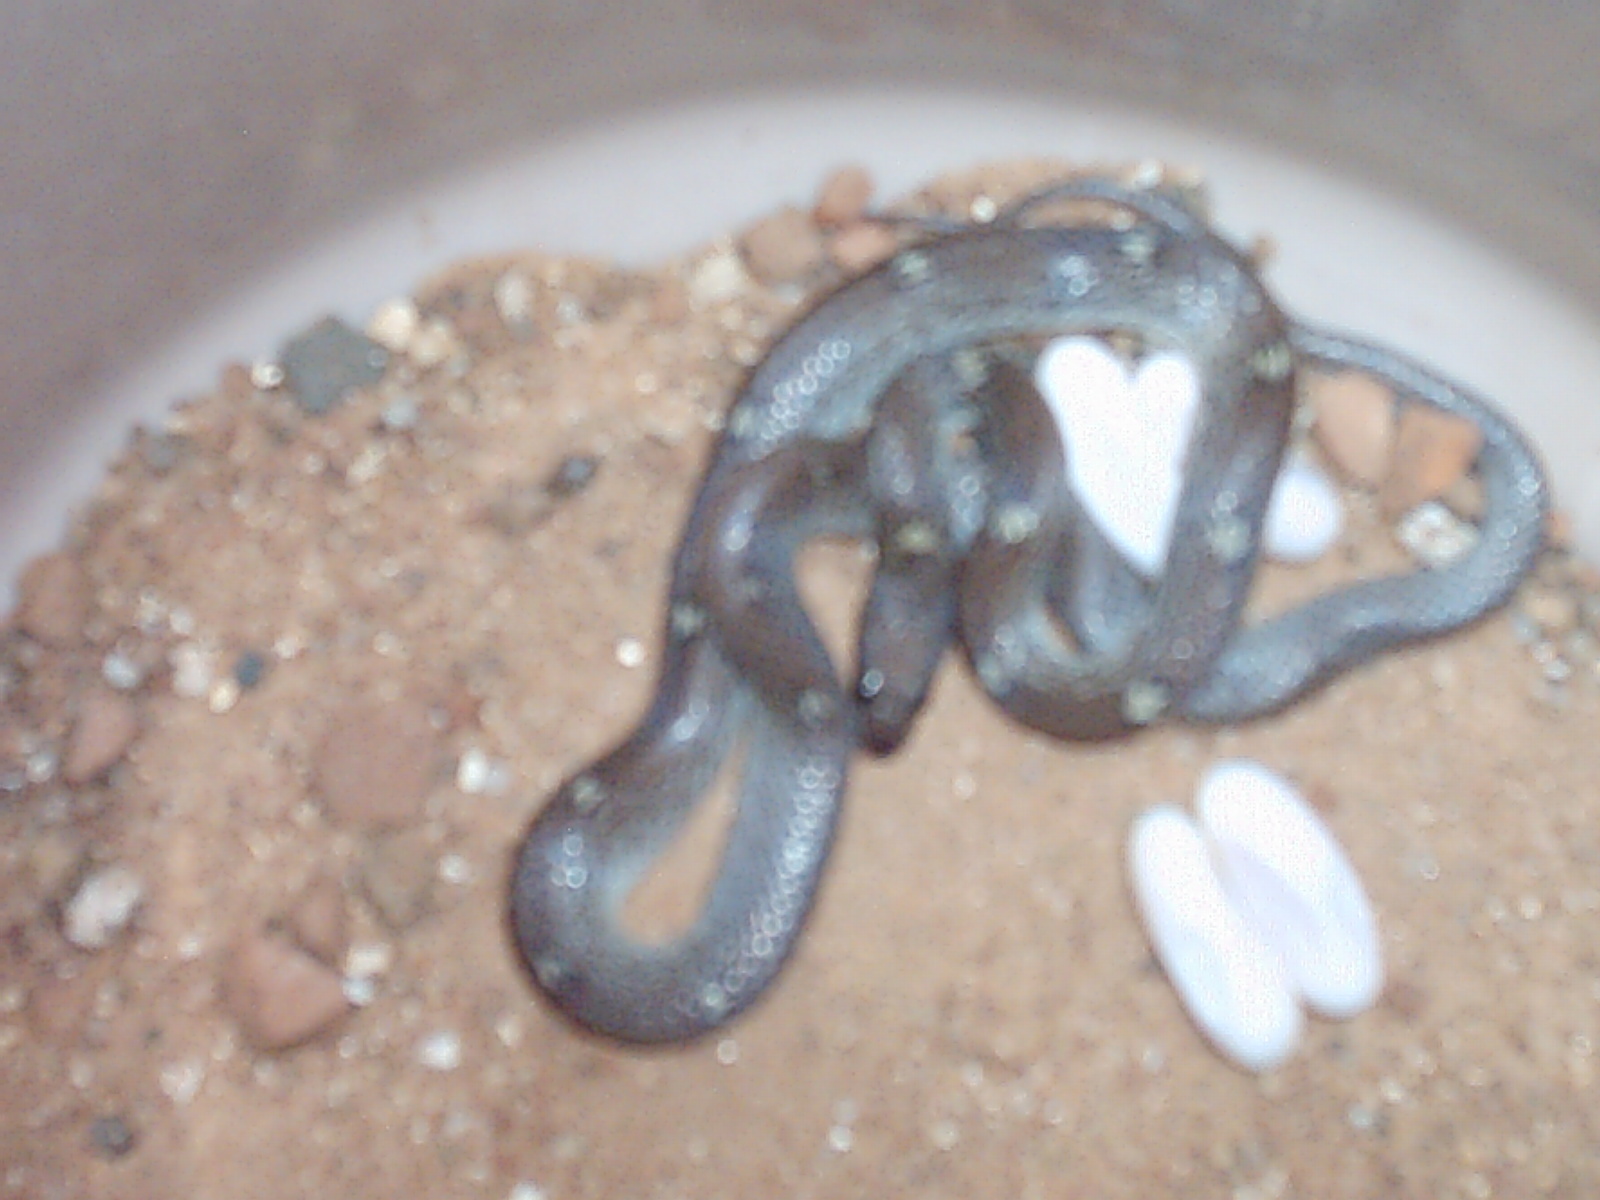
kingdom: Animalia
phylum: Chordata
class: Squamata
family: Colubridae
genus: Lycodon
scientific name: Lycodon fasciolatus
